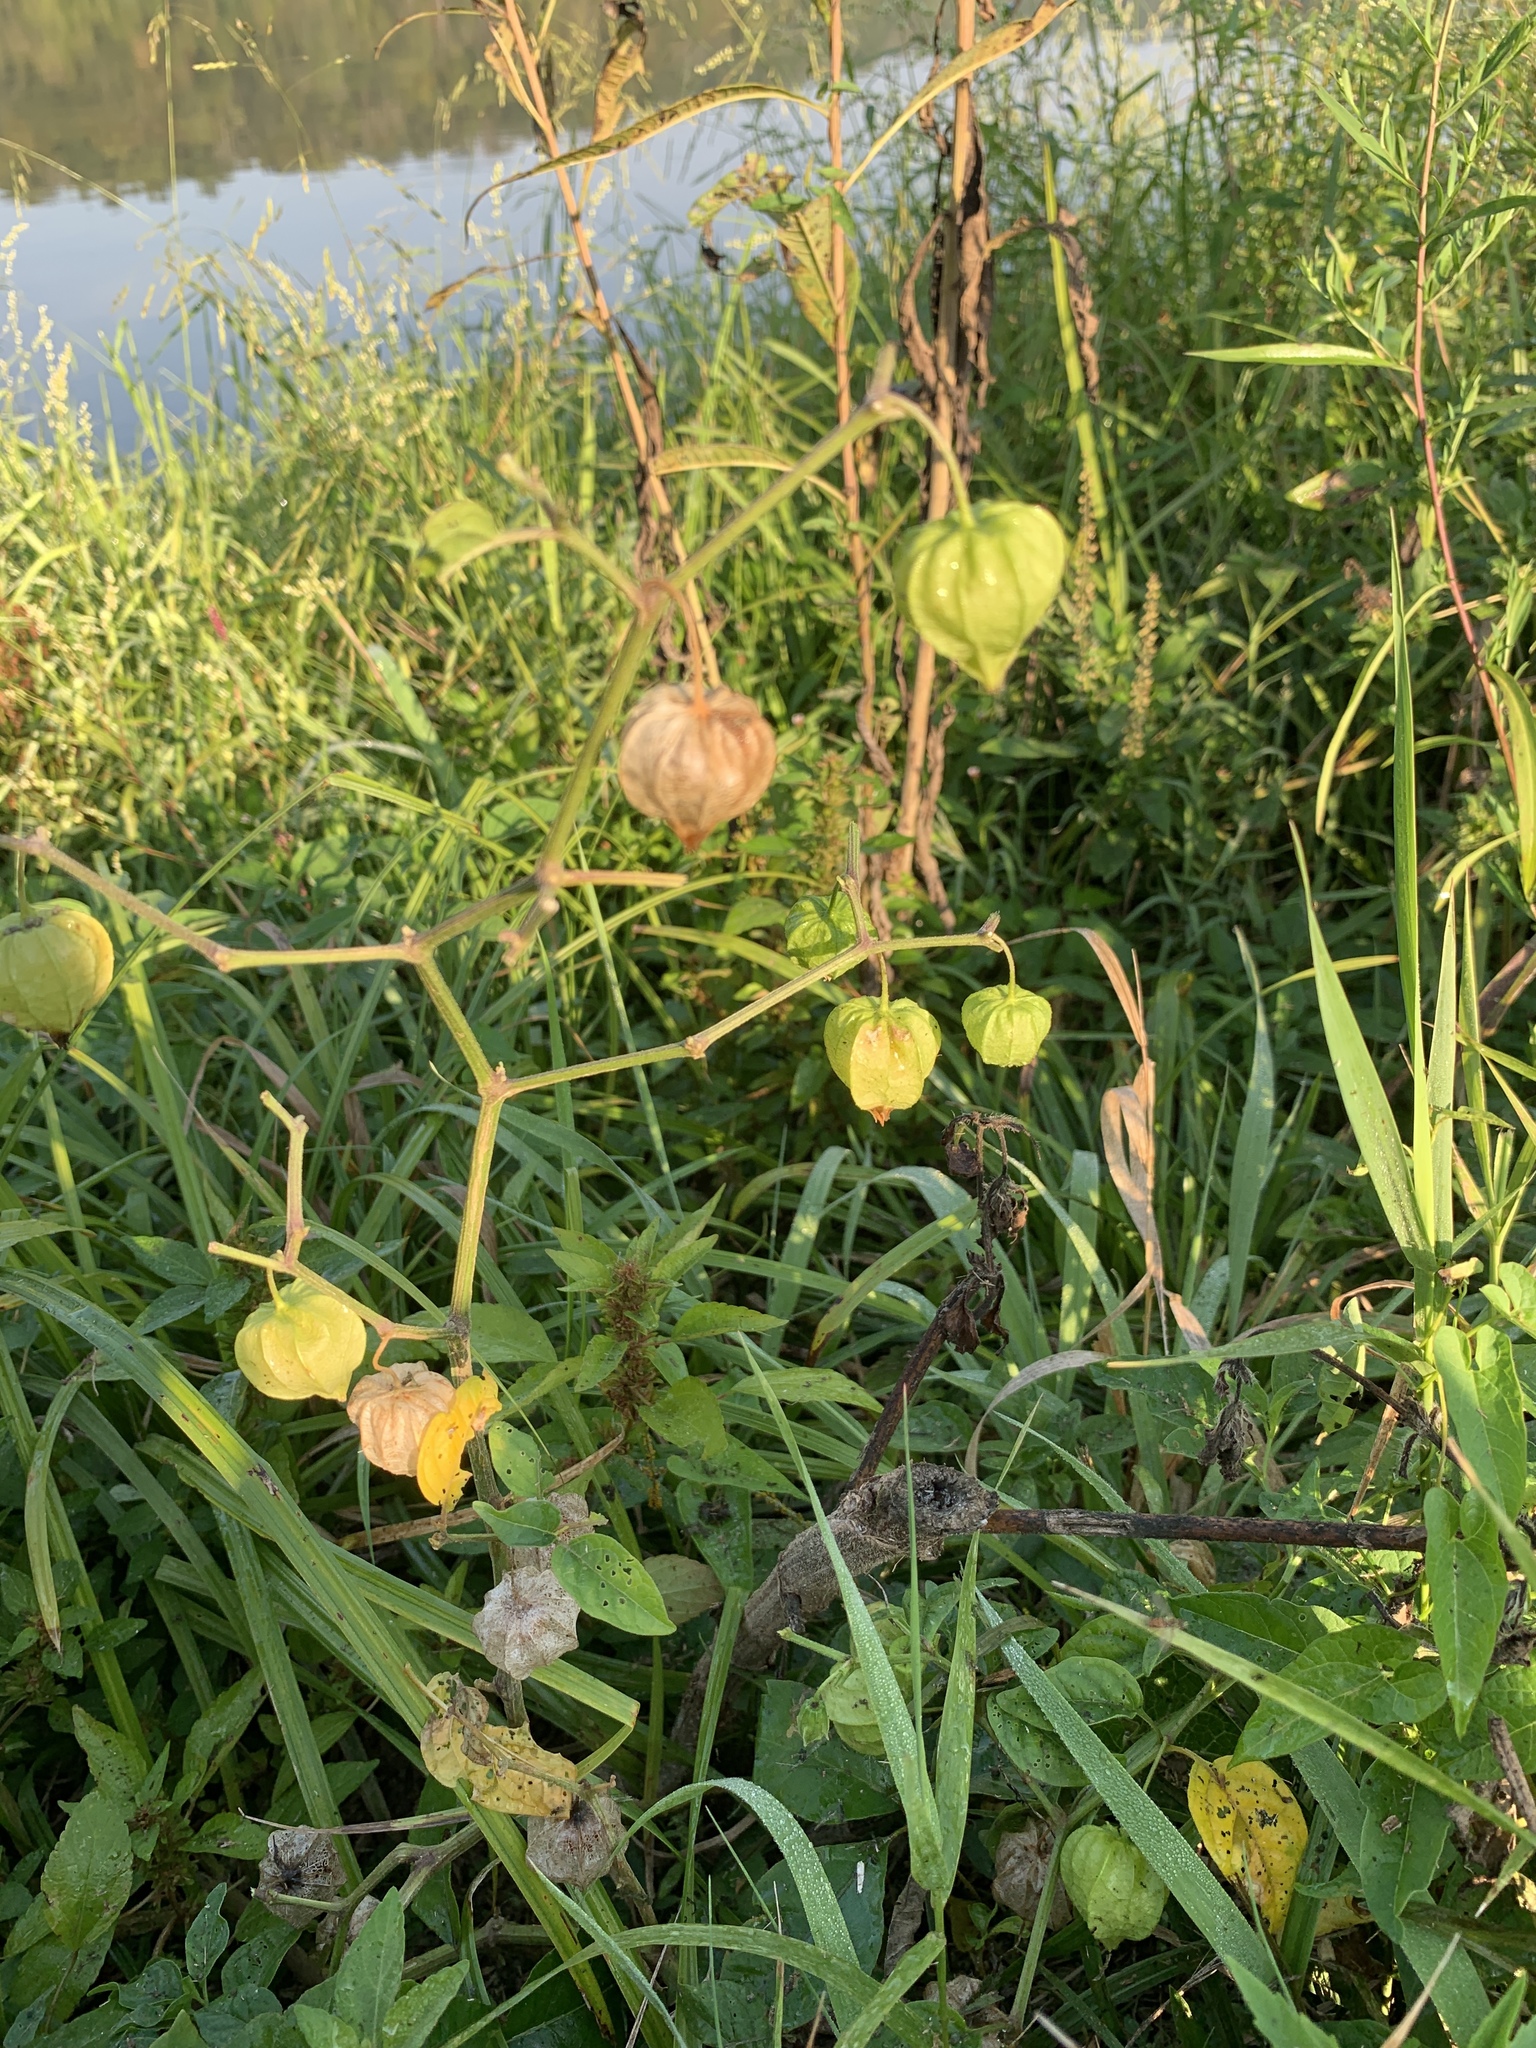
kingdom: Plantae
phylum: Tracheophyta
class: Magnoliopsida
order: Solanales
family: Solanaceae
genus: Physalis
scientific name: Physalis longifolia
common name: Common ground-cherry
